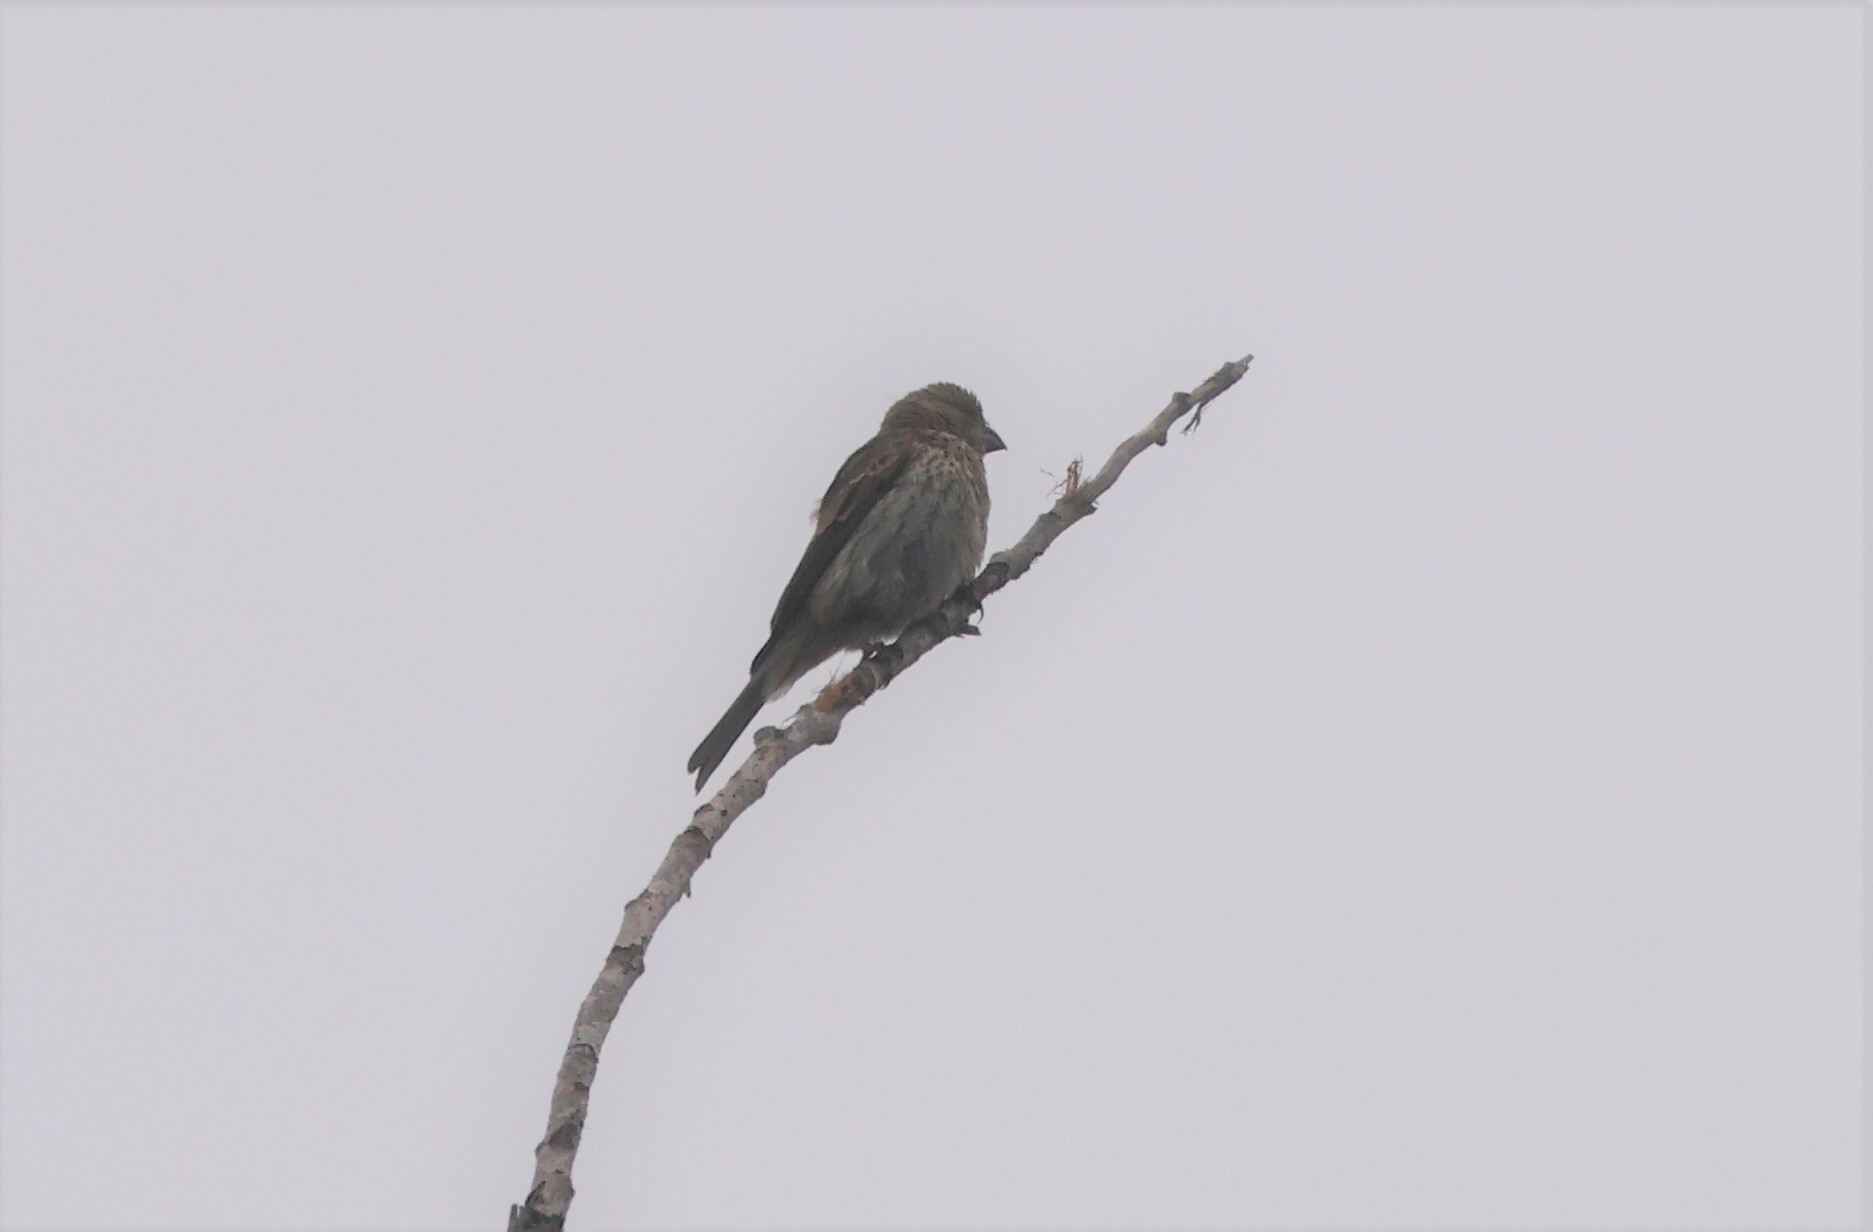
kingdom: Animalia
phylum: Chordata
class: Aves
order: Passeriformes
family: Fringillidae
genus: Haemorhous
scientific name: Haemorhous mexicanus
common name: House finch
